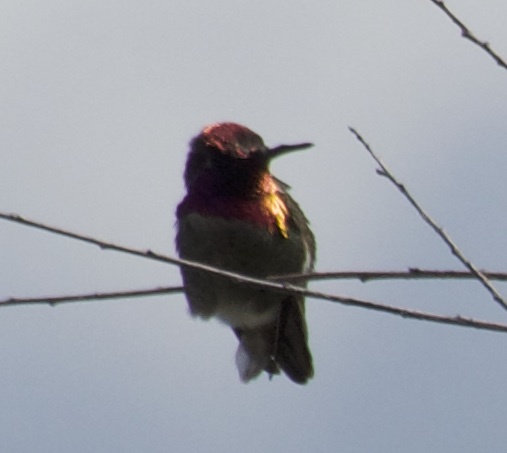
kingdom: Animalia
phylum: Chordata
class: Aves
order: Apodiformes
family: Trochilidae
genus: Calypte
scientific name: Calypte anna
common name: Anna's hummingbird
